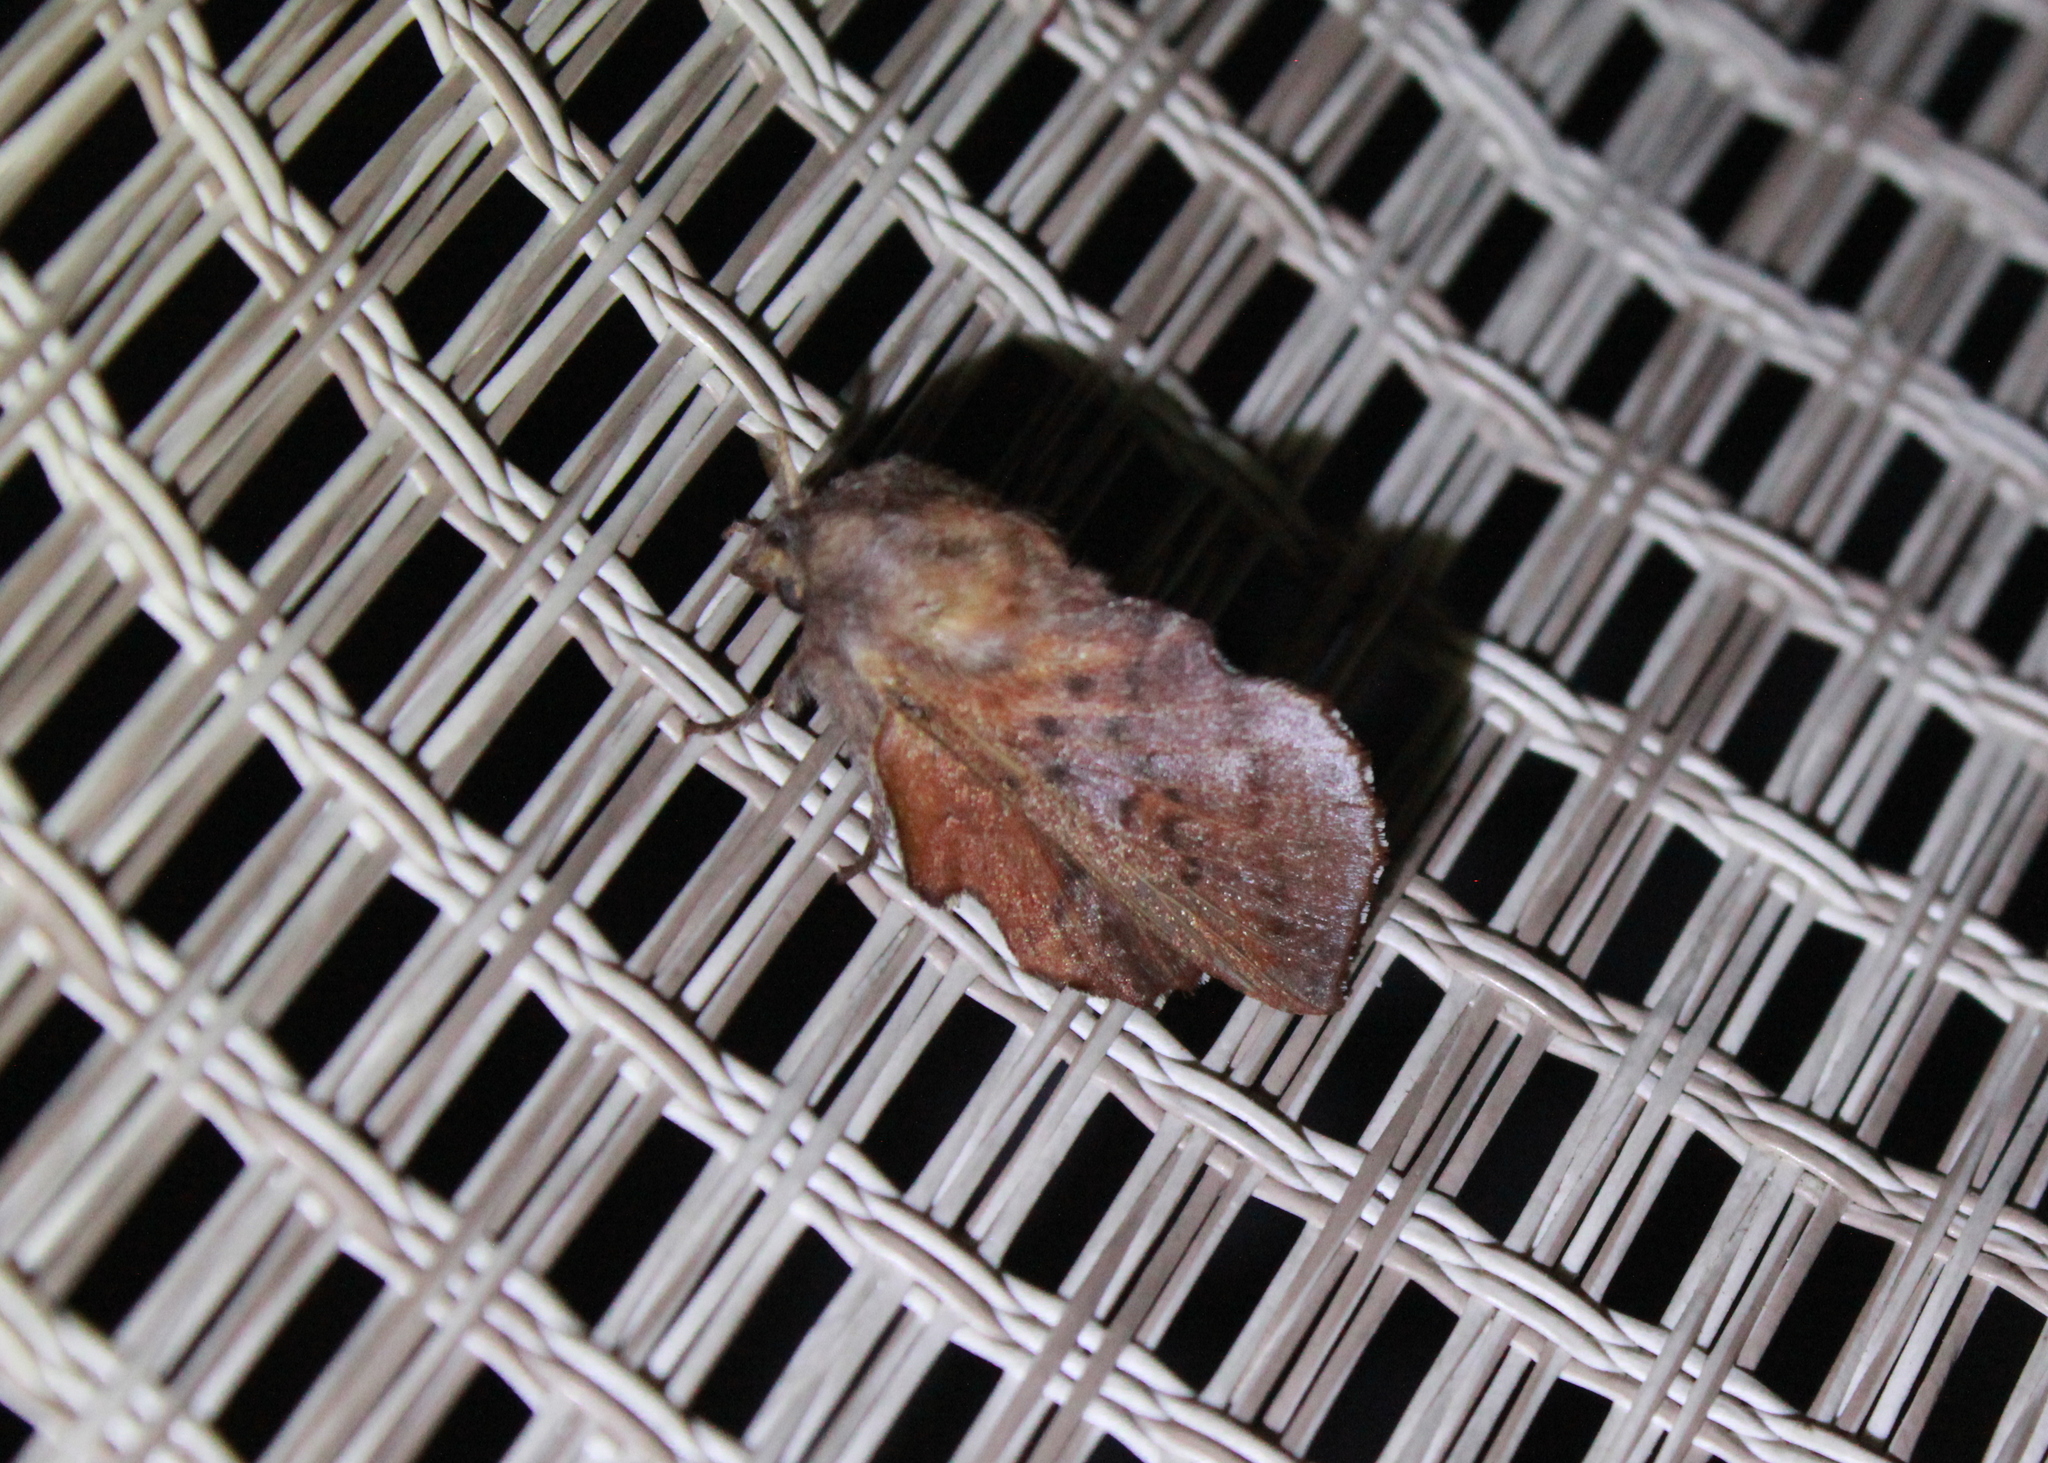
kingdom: Animalia
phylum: Arthropoda
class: Insecta
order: Lepidoptera
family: Lasiocampidae
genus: Phyllodesma
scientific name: Phyllodesma americana
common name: American lappet moth
